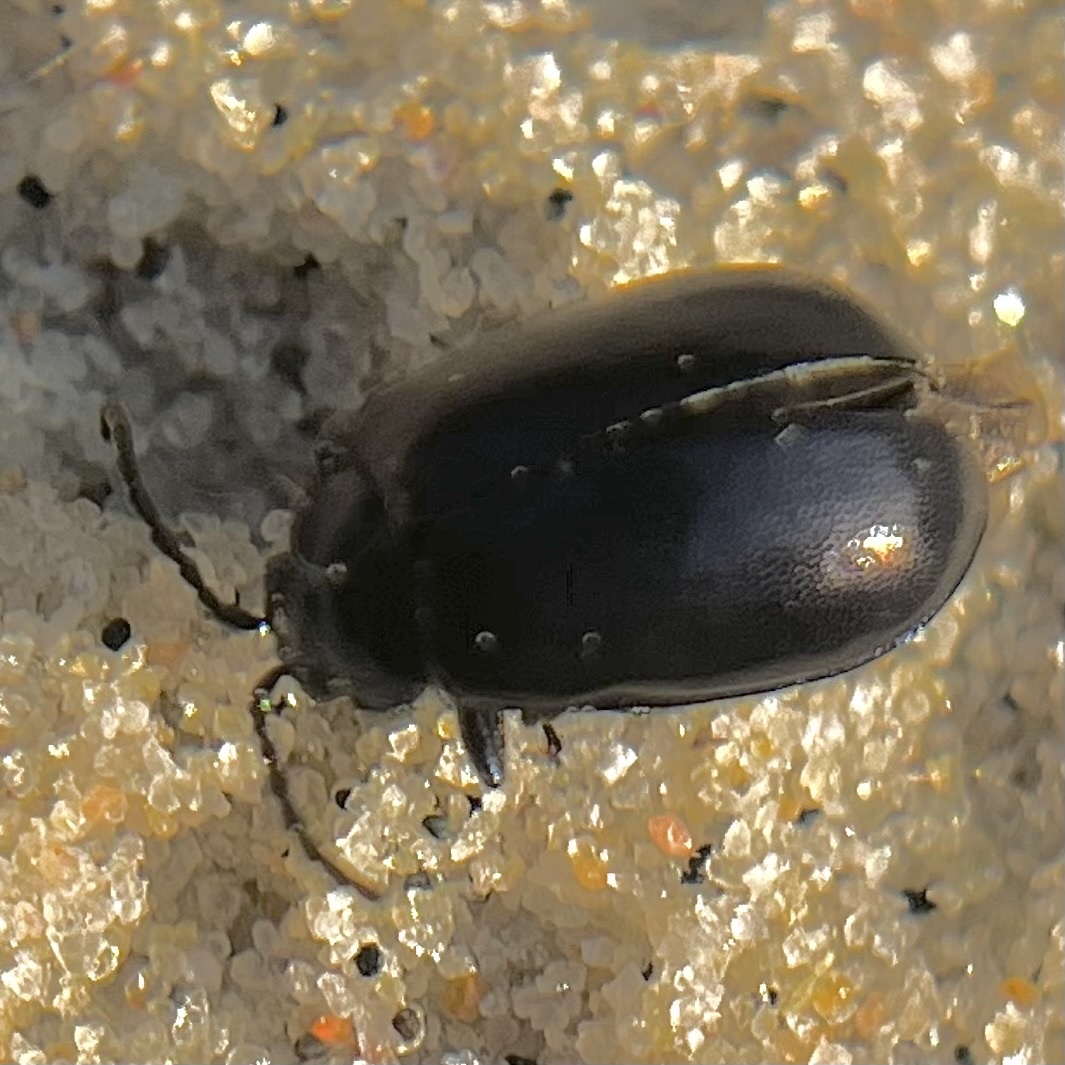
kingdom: Animalia
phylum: Arthropoda
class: Insecta
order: Coleoptera
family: Chrysomelidae
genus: Agelastica
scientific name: Agelastica alni
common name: Alder leaf beetle
